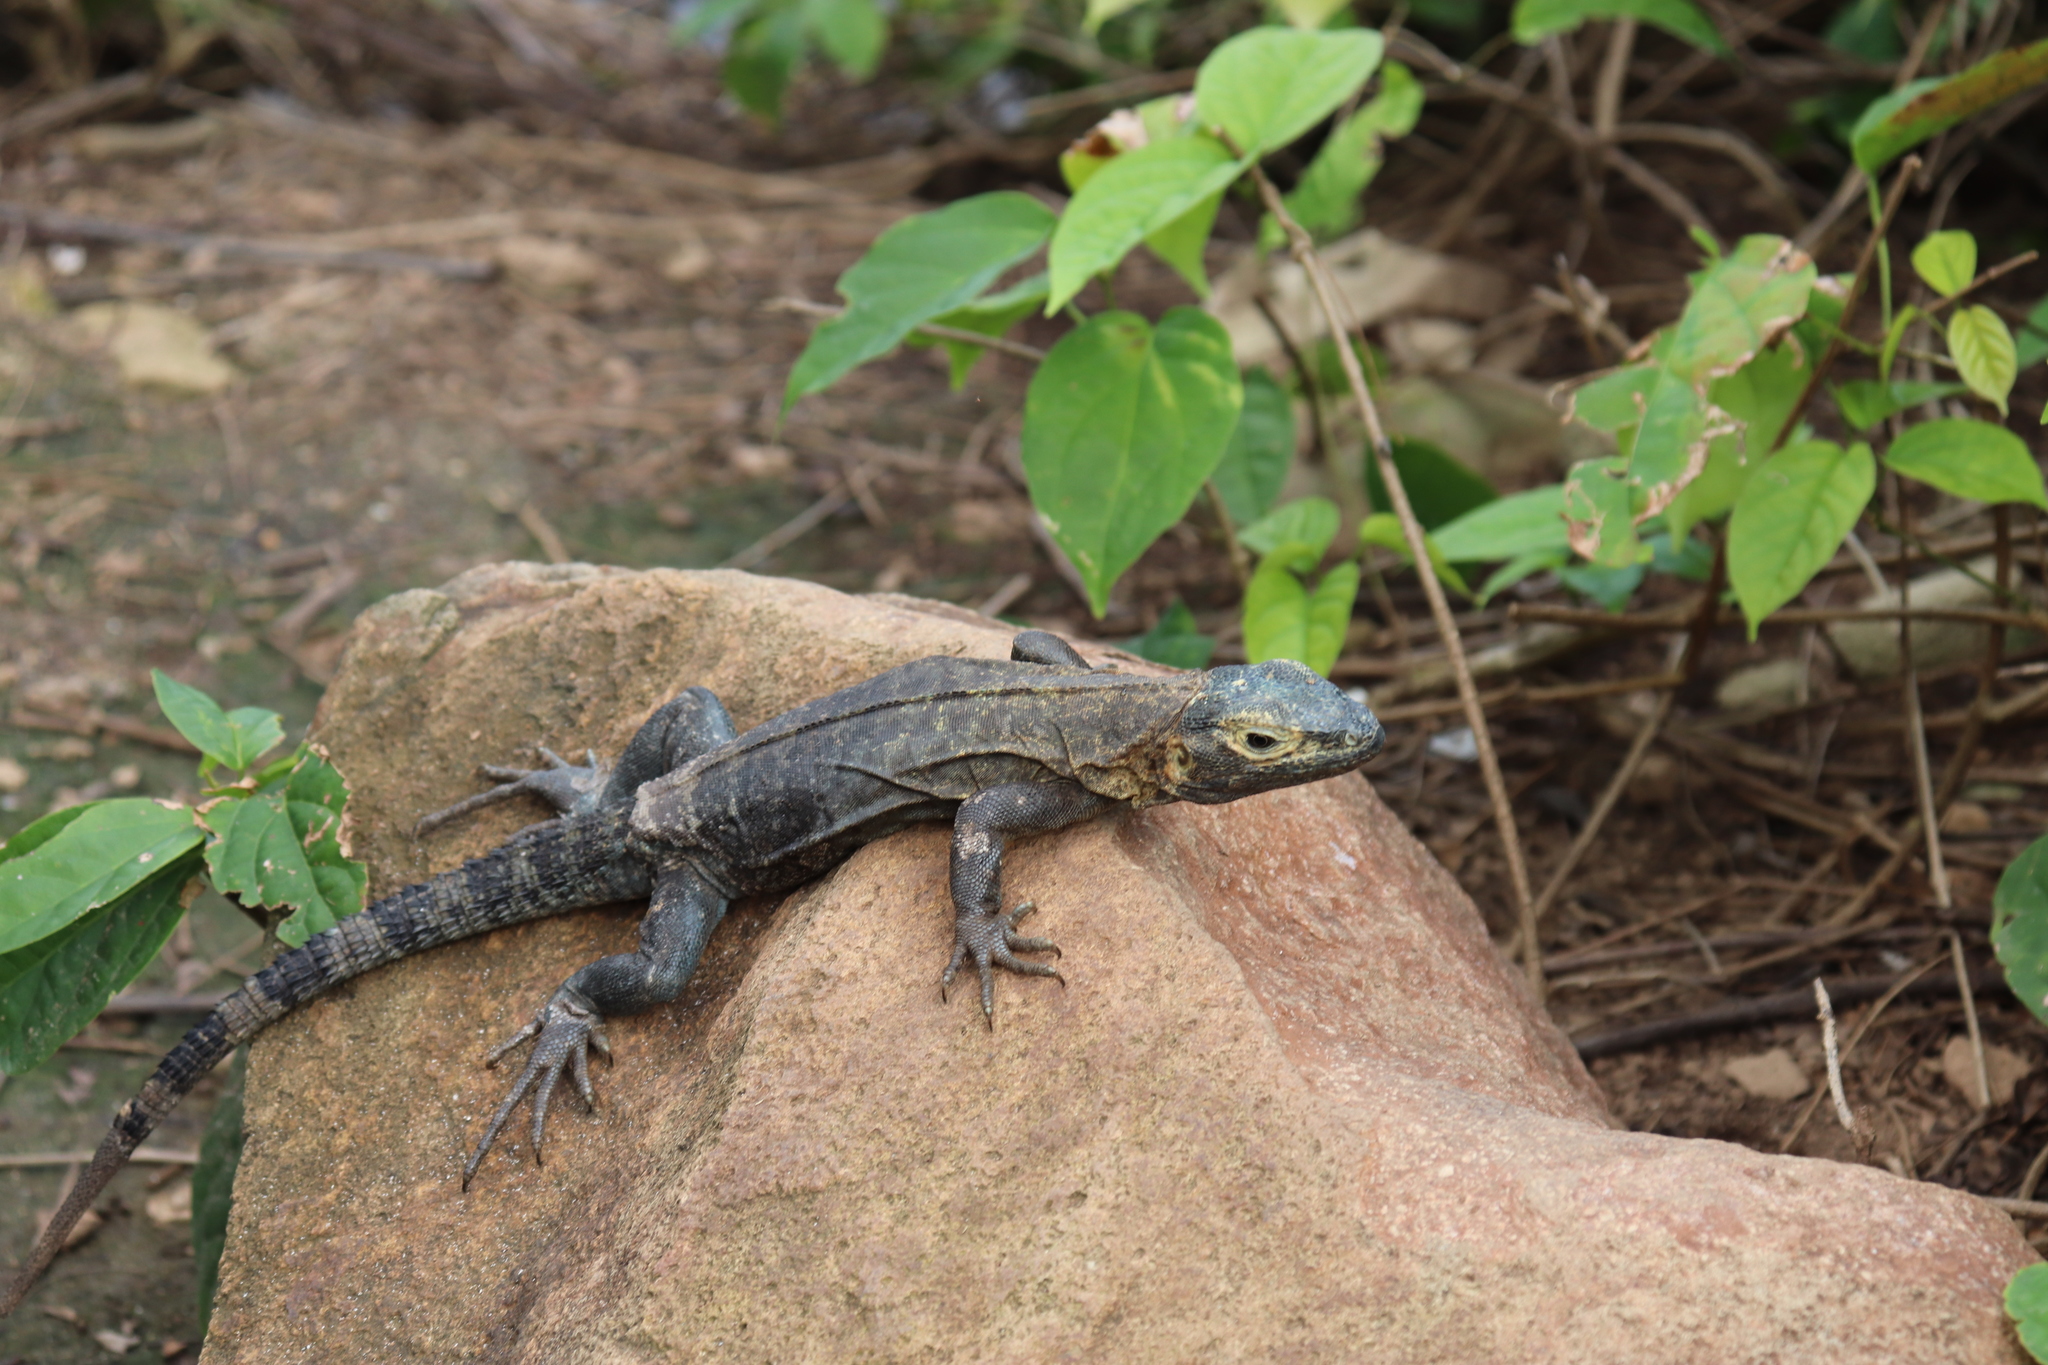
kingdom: Animalia
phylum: Chordata
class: Squamata
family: Iguanidae
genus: Ctenosaura
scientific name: Ctenosaura similis
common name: Black spiny-tailed iguana
